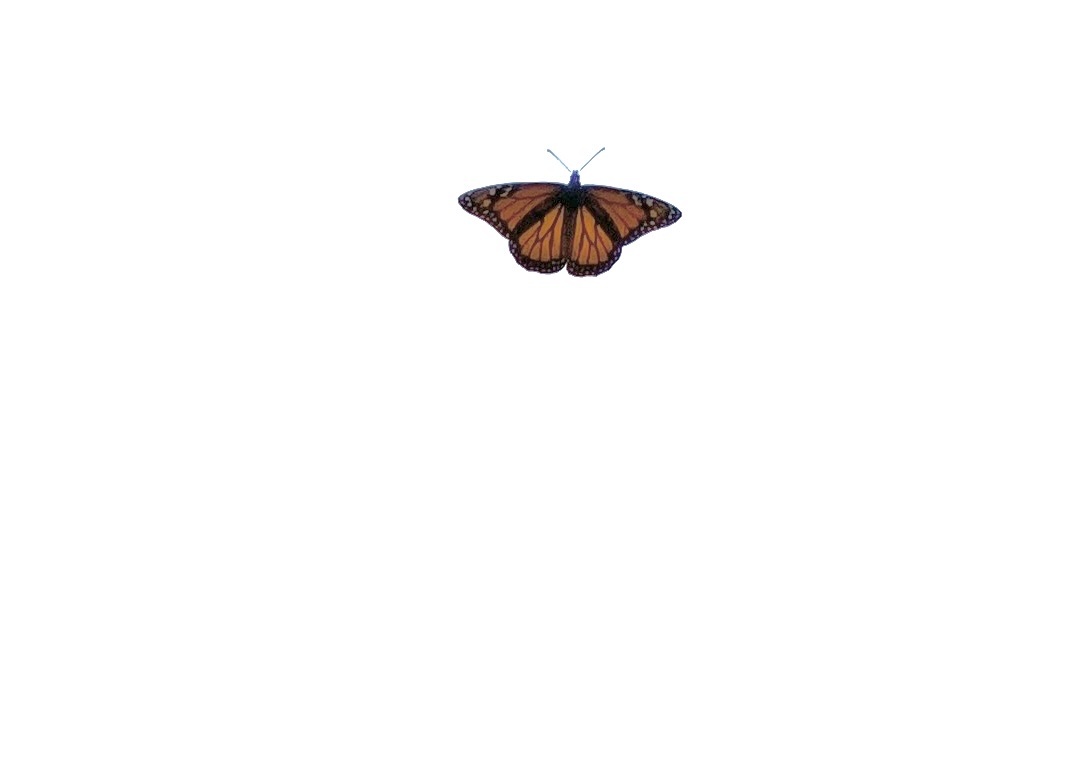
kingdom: Animalia
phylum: Arthropoda
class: Insecta
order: Lepidoptera
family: Nymphalidae
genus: Danaus
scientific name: Danaus plexippus
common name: Monarch
